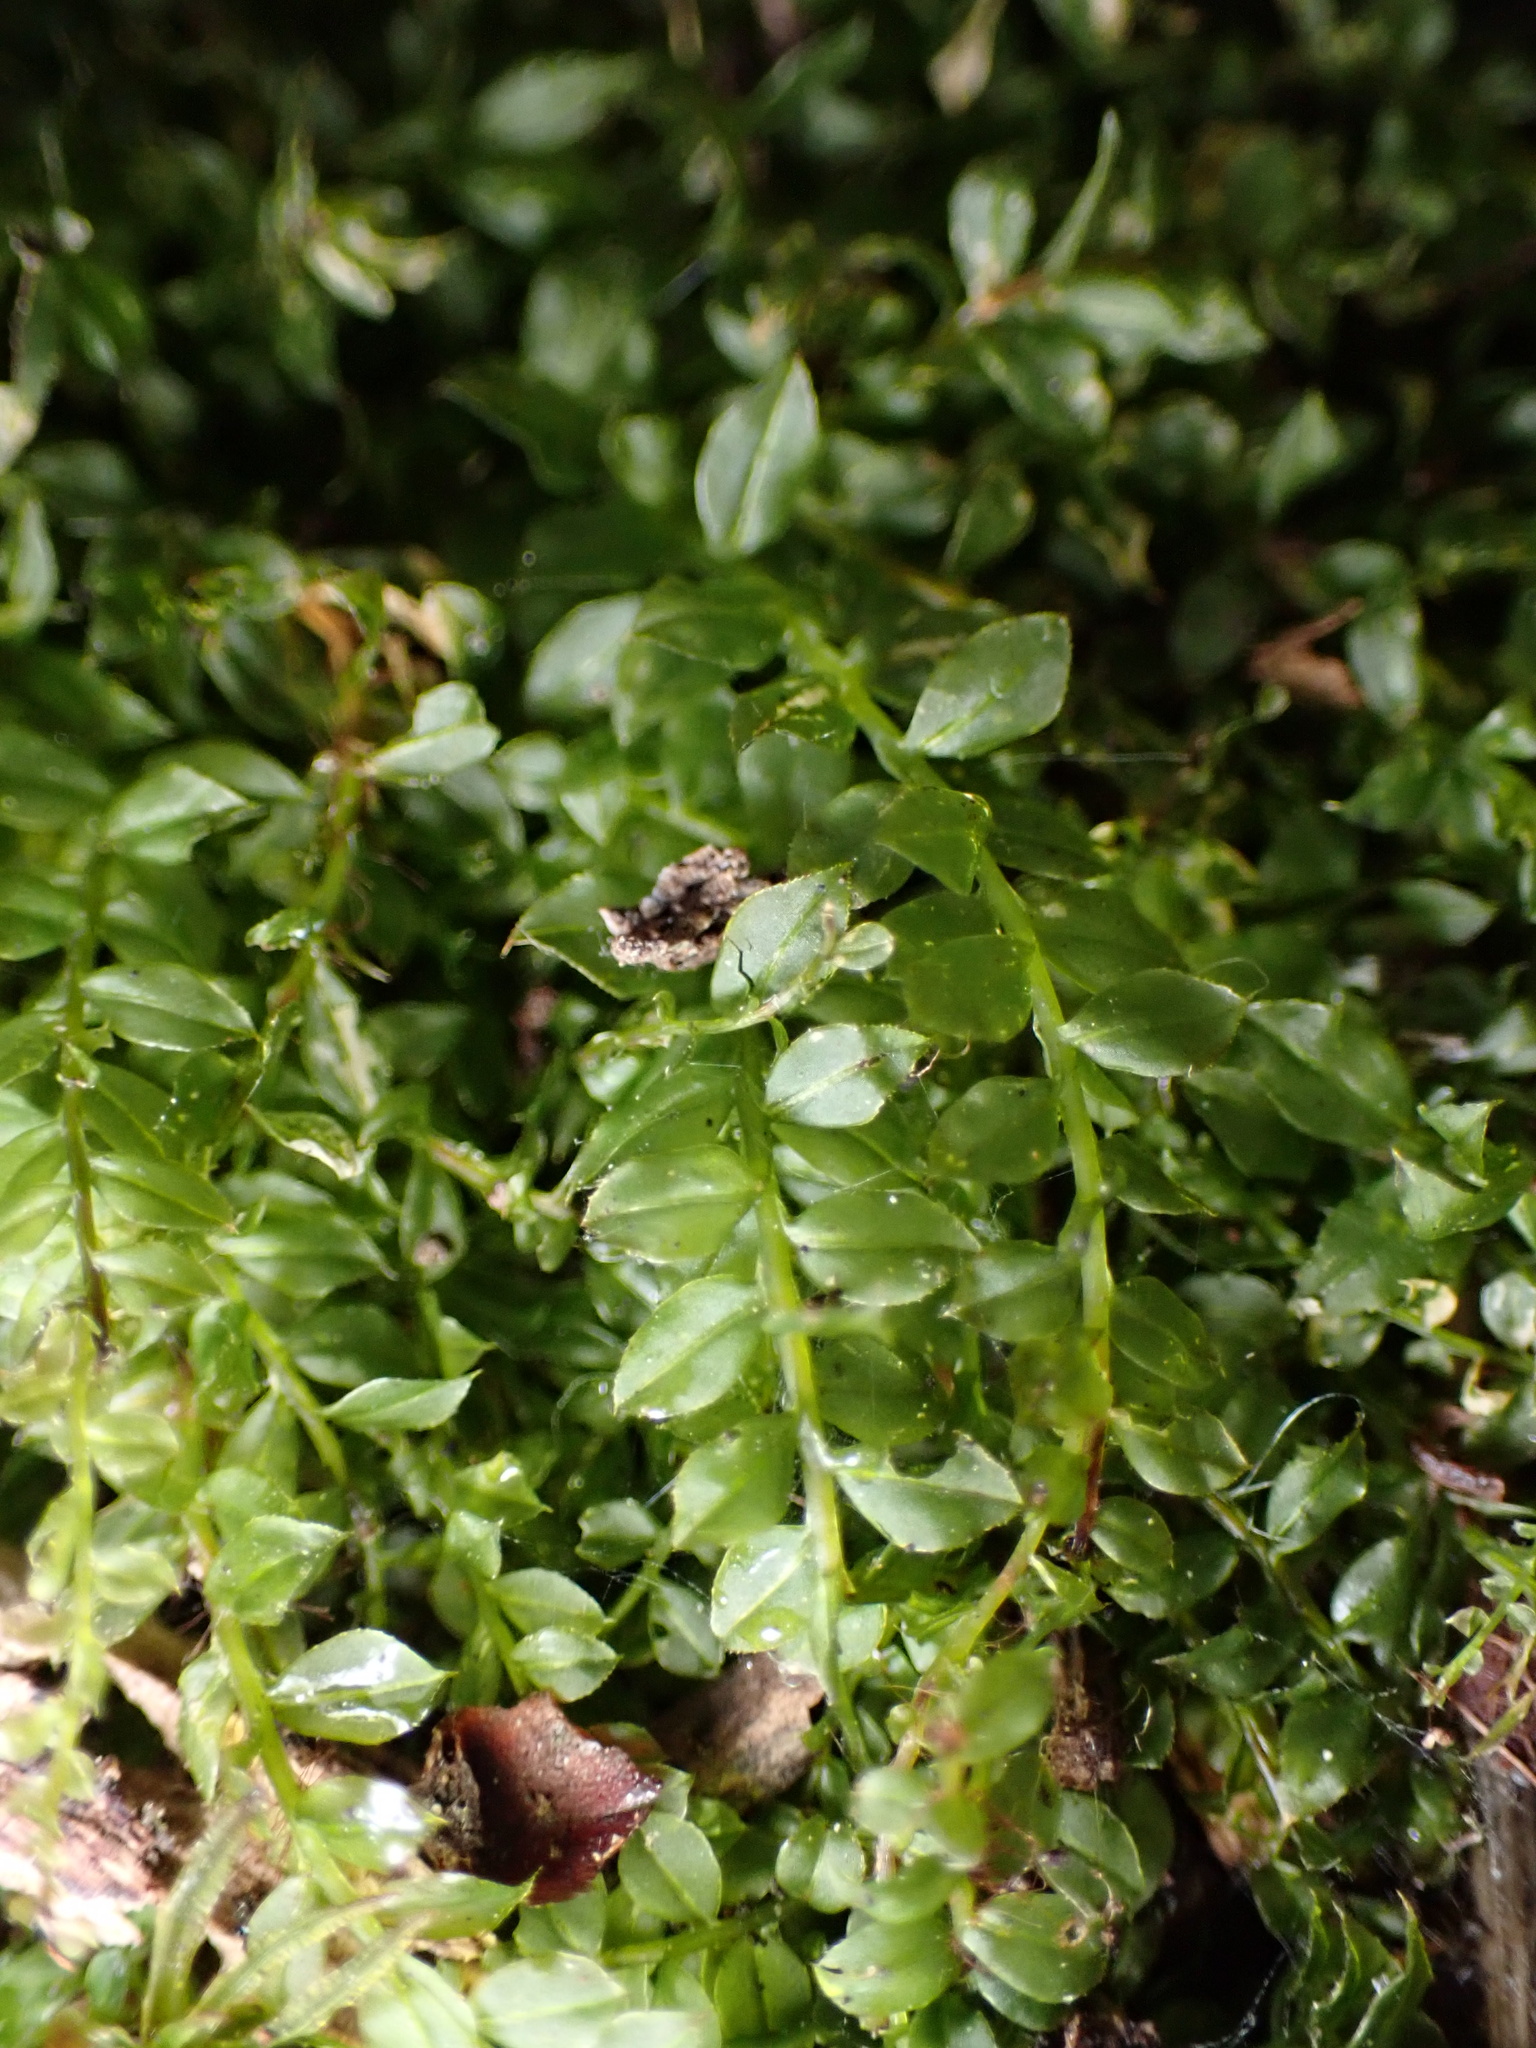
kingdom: Plantae
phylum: Bryophyta
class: Bryopsida
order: Bryales
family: Mniaceae
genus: Plagiomnium
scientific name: Plagiomnium cuspidatum
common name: Woodsy leafy moss
